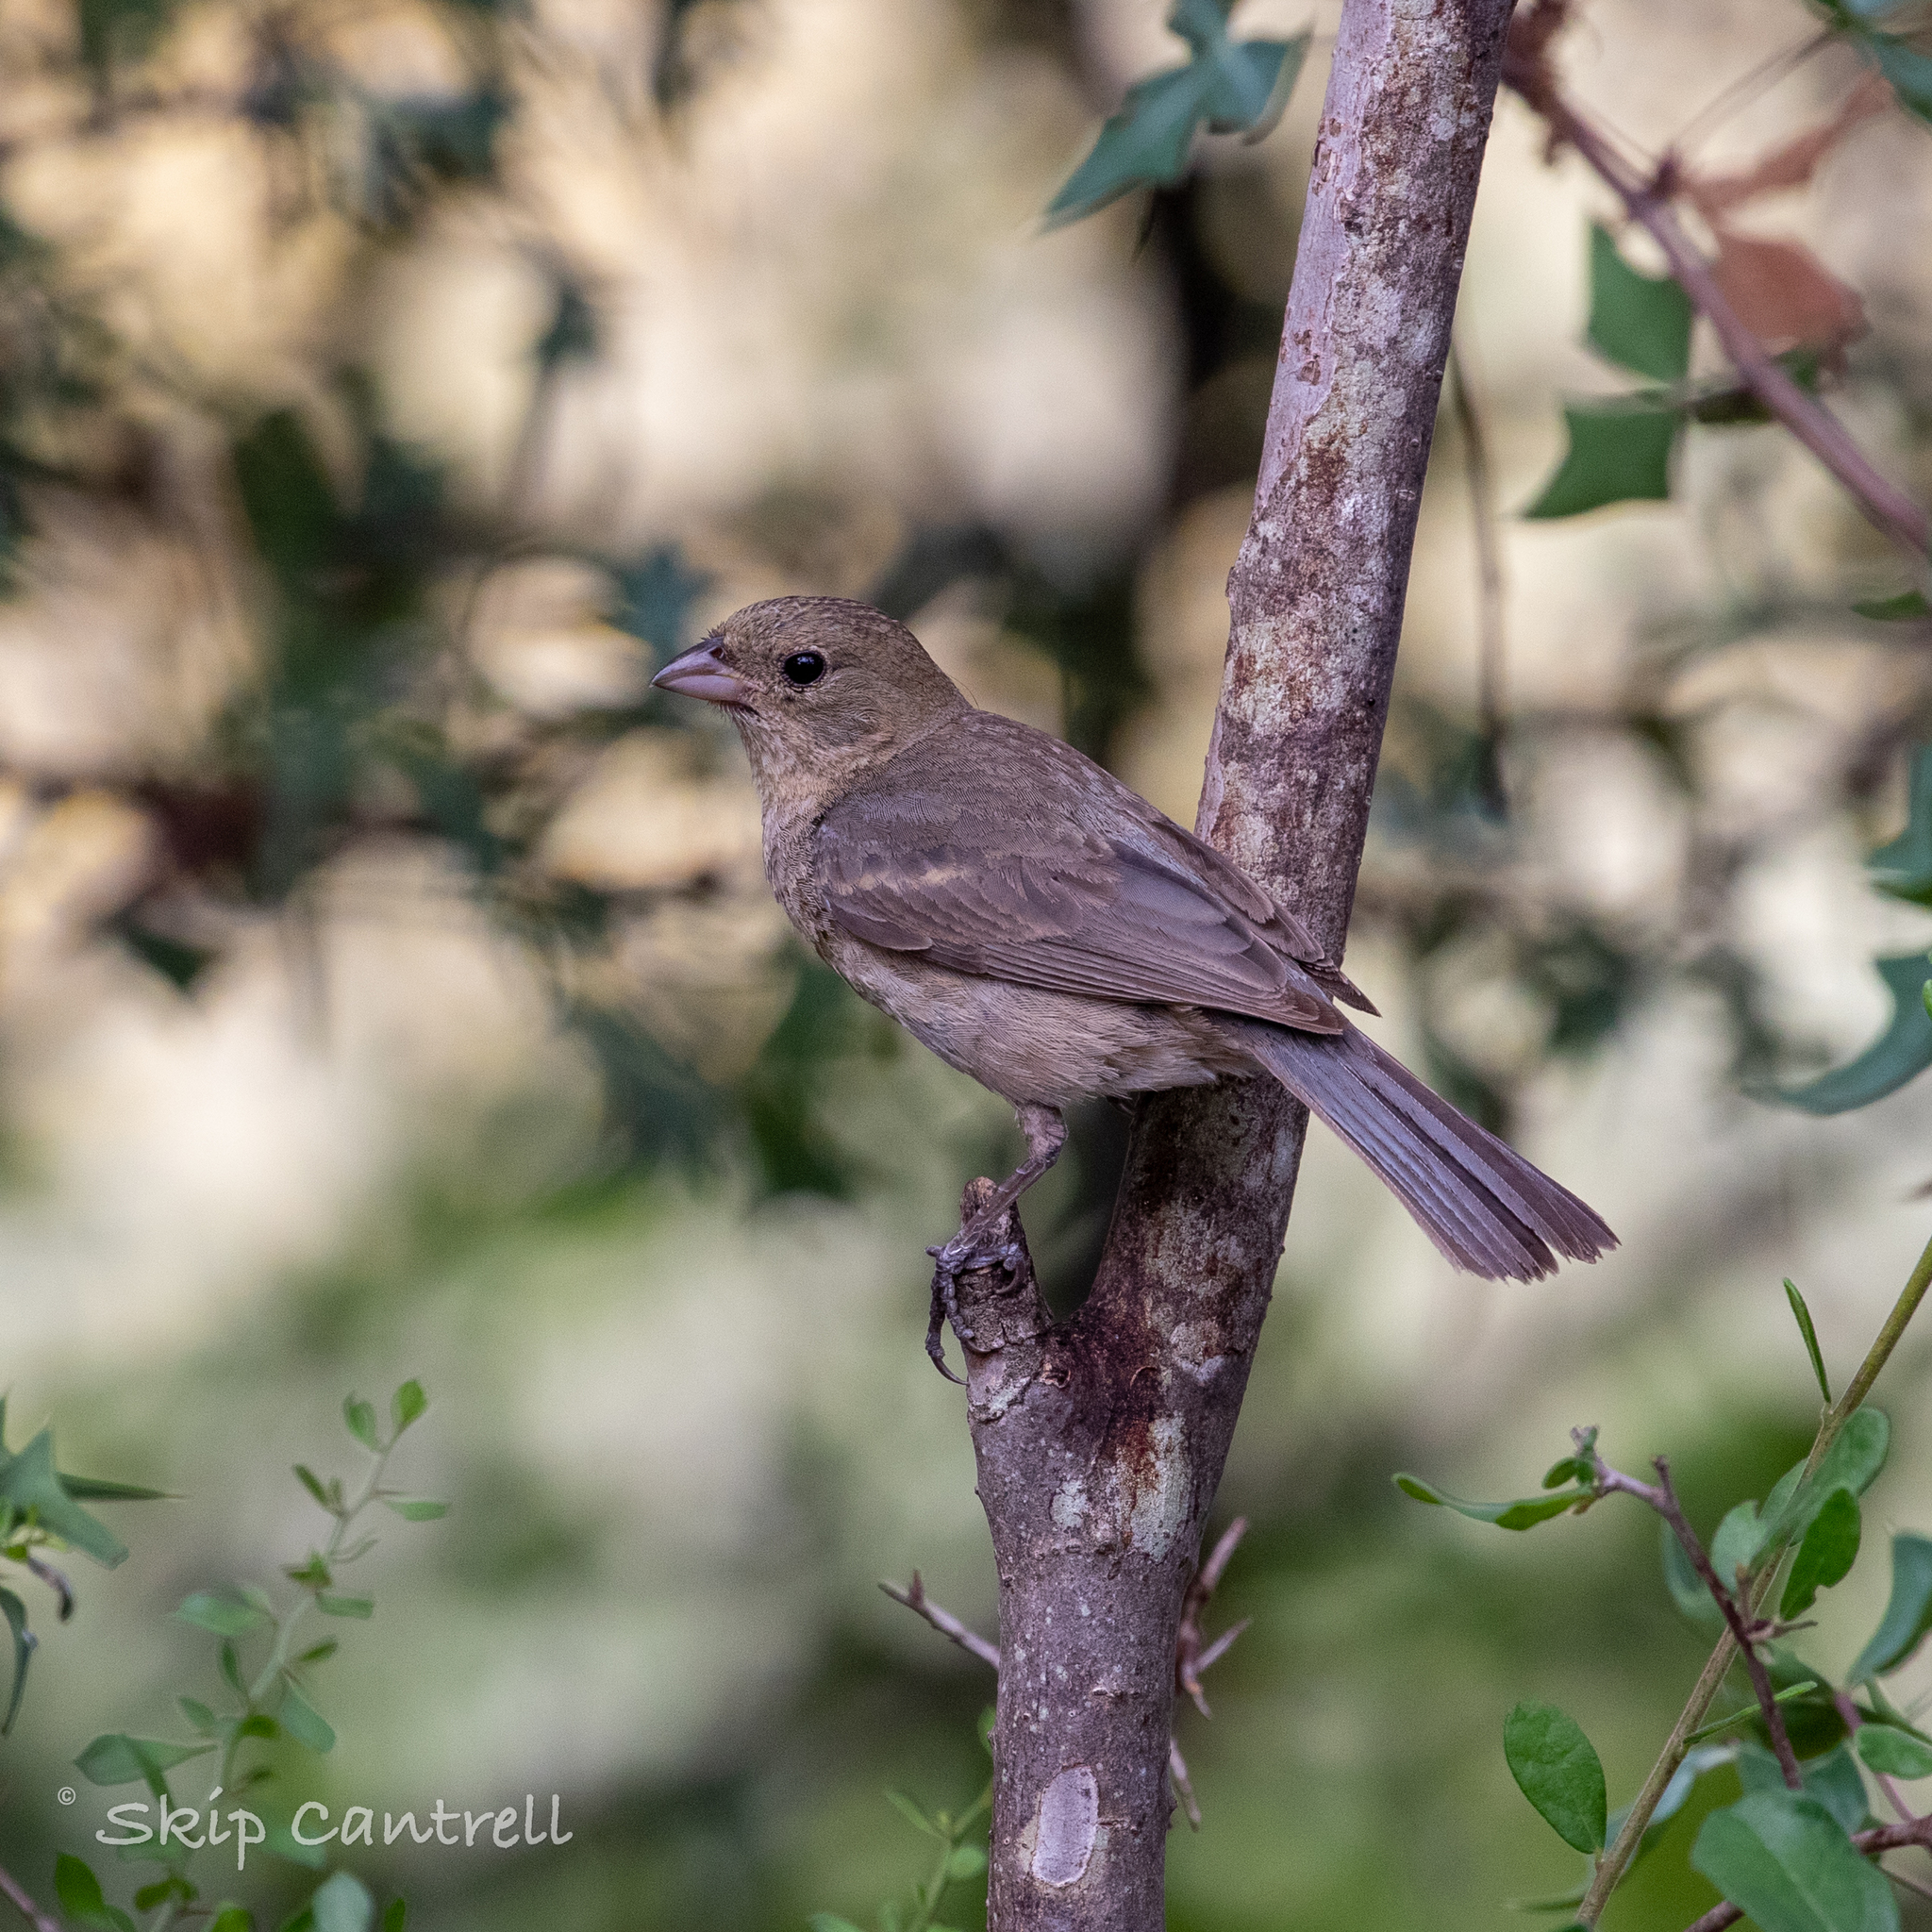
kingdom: Animalia
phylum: Chordata
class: Aves
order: Passeriformes
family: Cardinalidae
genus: Passerina
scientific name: Passerina versicolor
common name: Varied bunting
